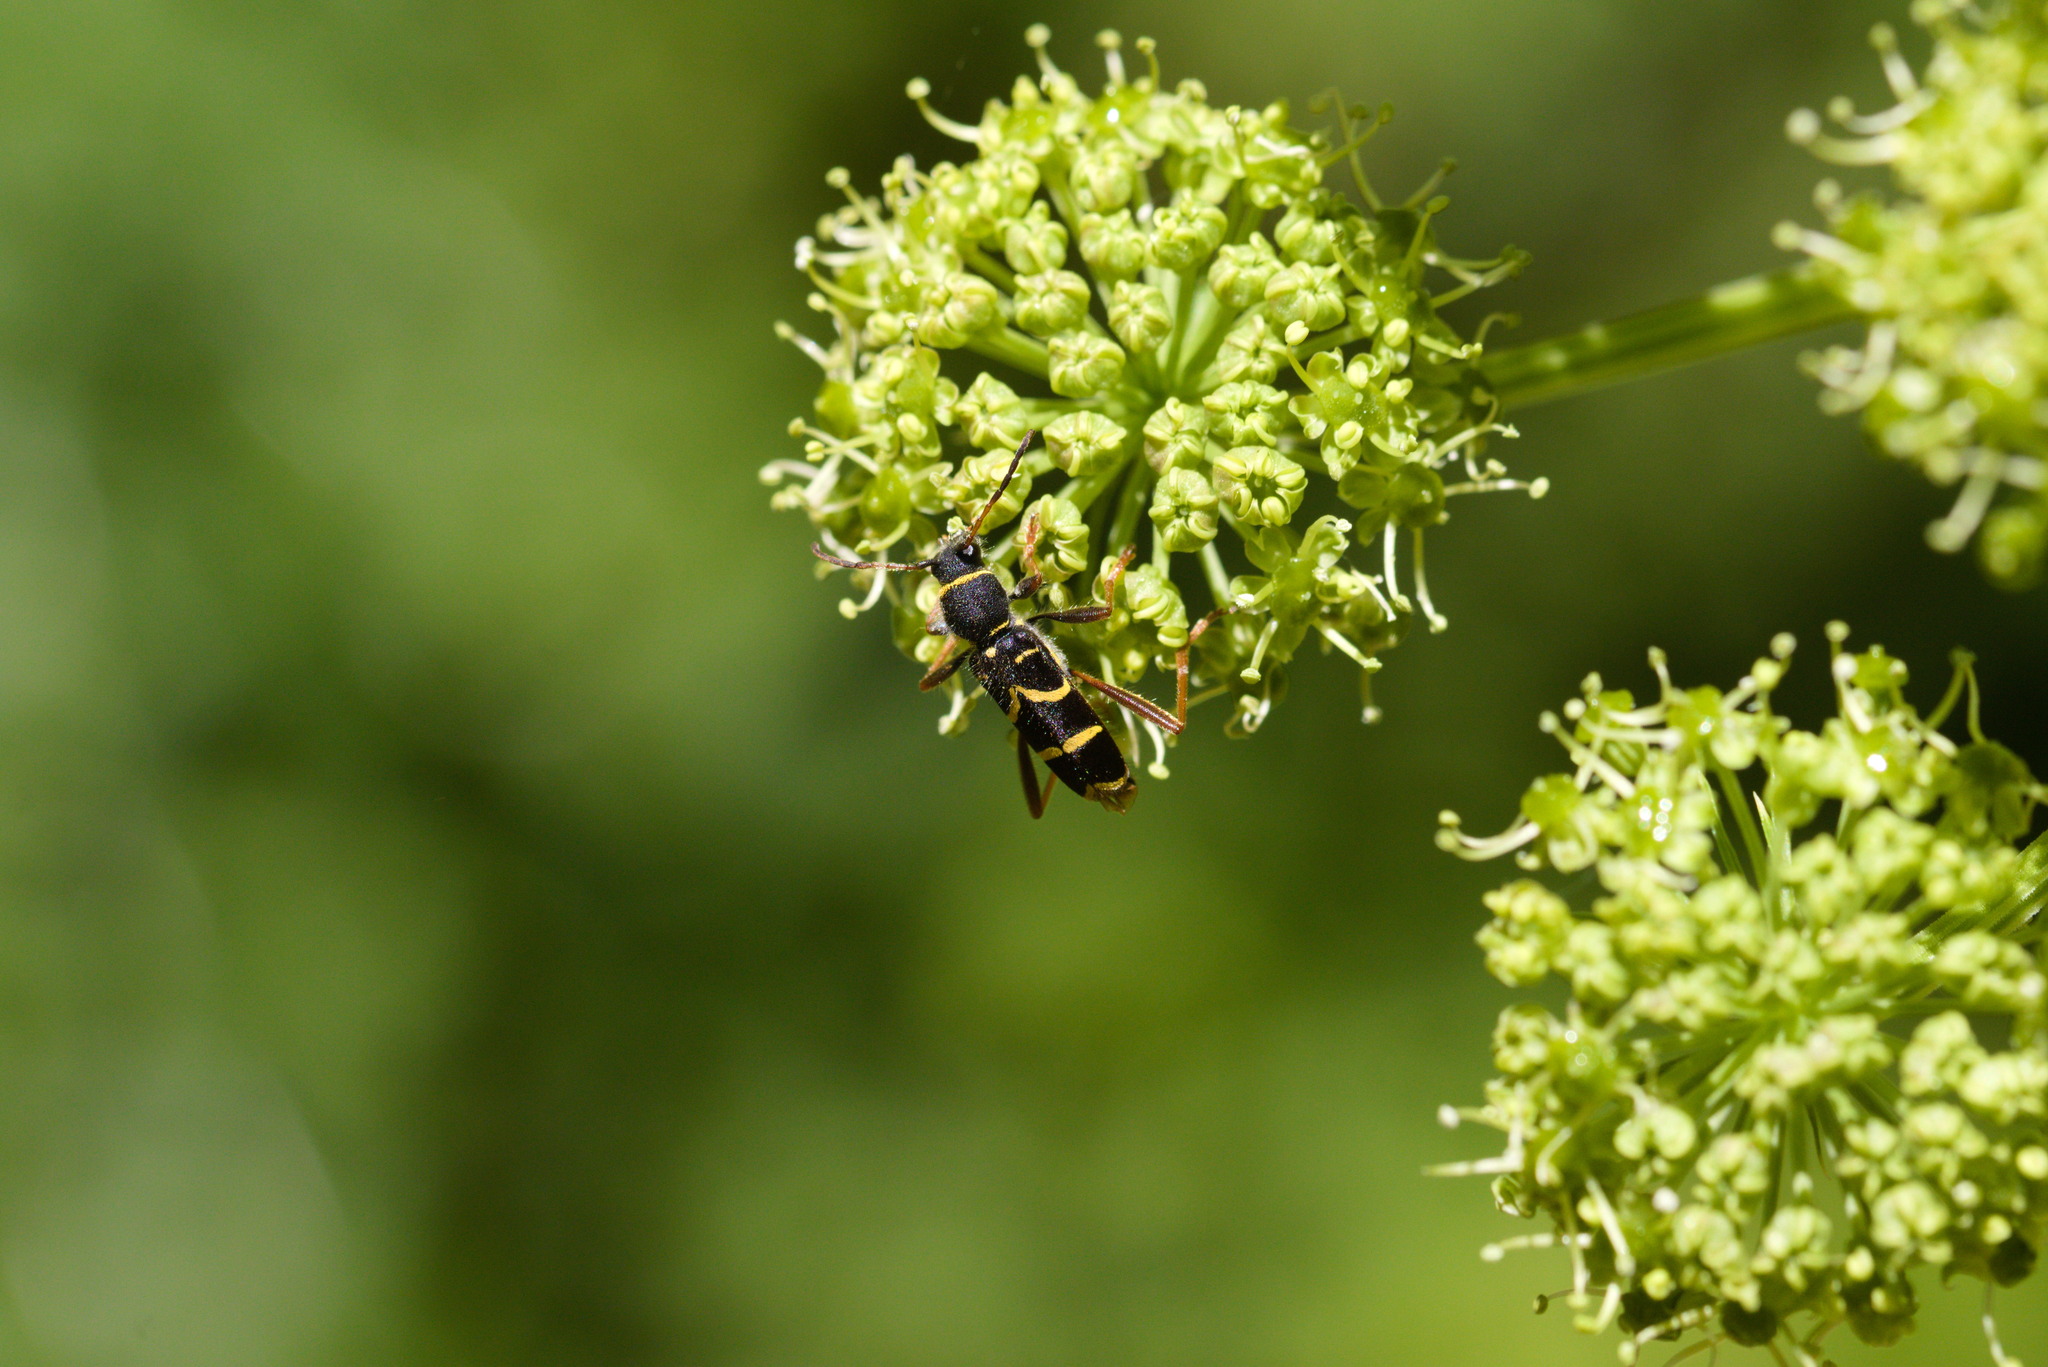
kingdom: Animalia
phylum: Arthropoda
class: Insecta
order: Coleoptera
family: Cerambycidae
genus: Clytus
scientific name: Clytus arietis
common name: Wasp beetle
